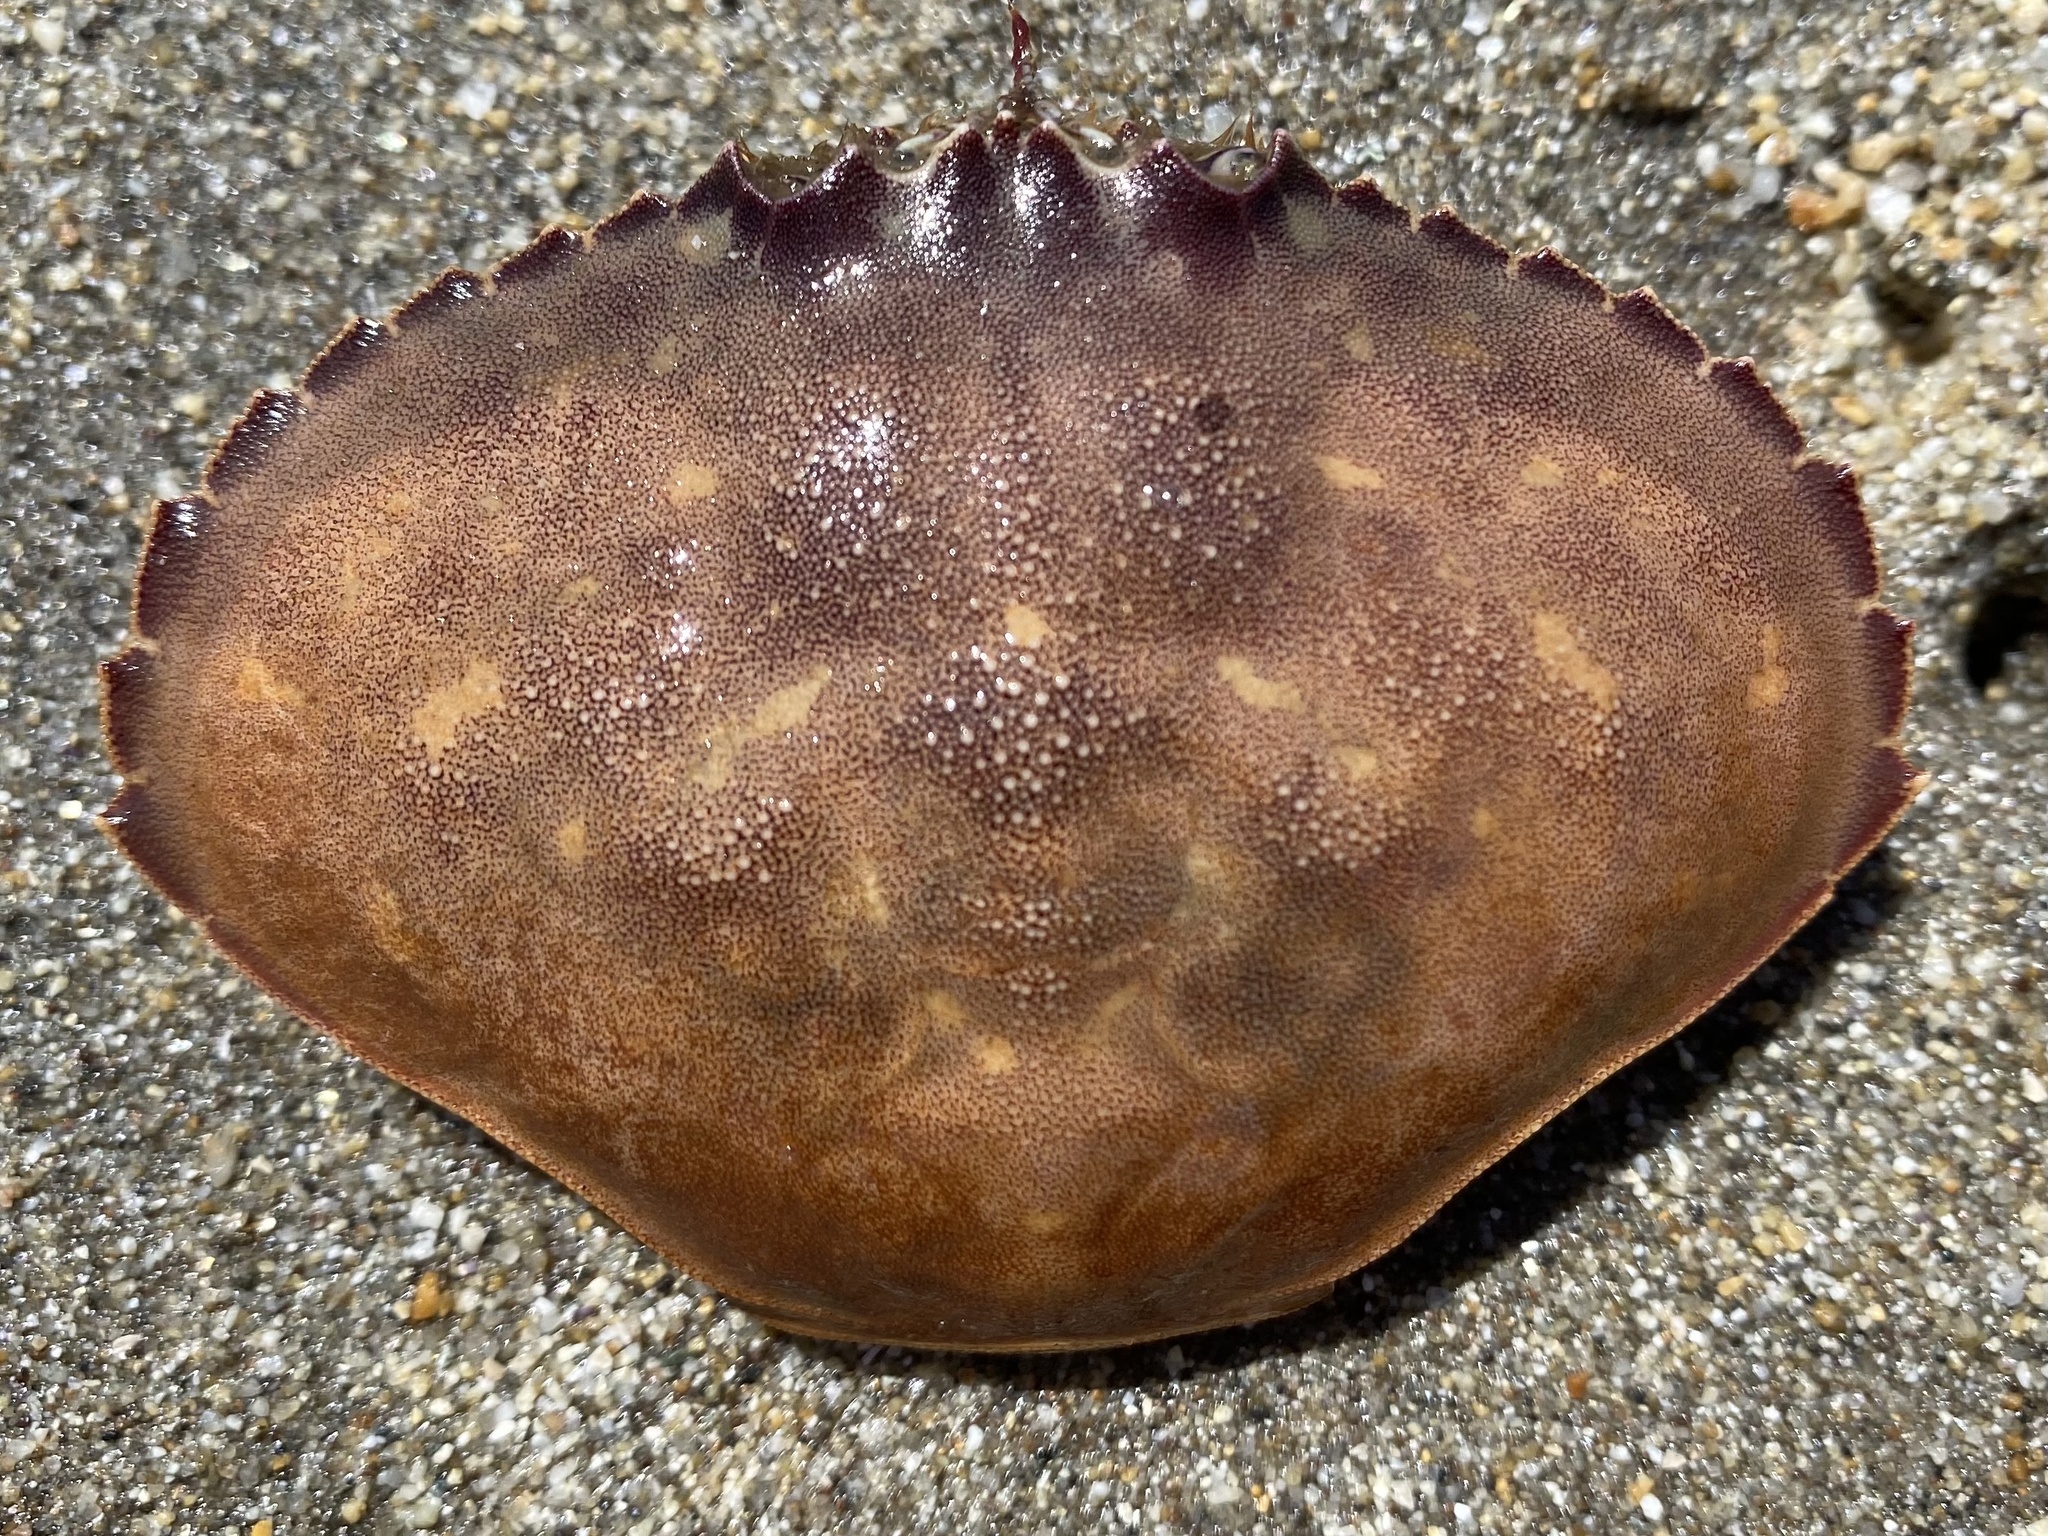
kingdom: Animalia
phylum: Arthropoda
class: Malacostraca
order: Decapoda
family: Cancridae
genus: Metacarcinus
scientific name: Metacarcinus gracilis
